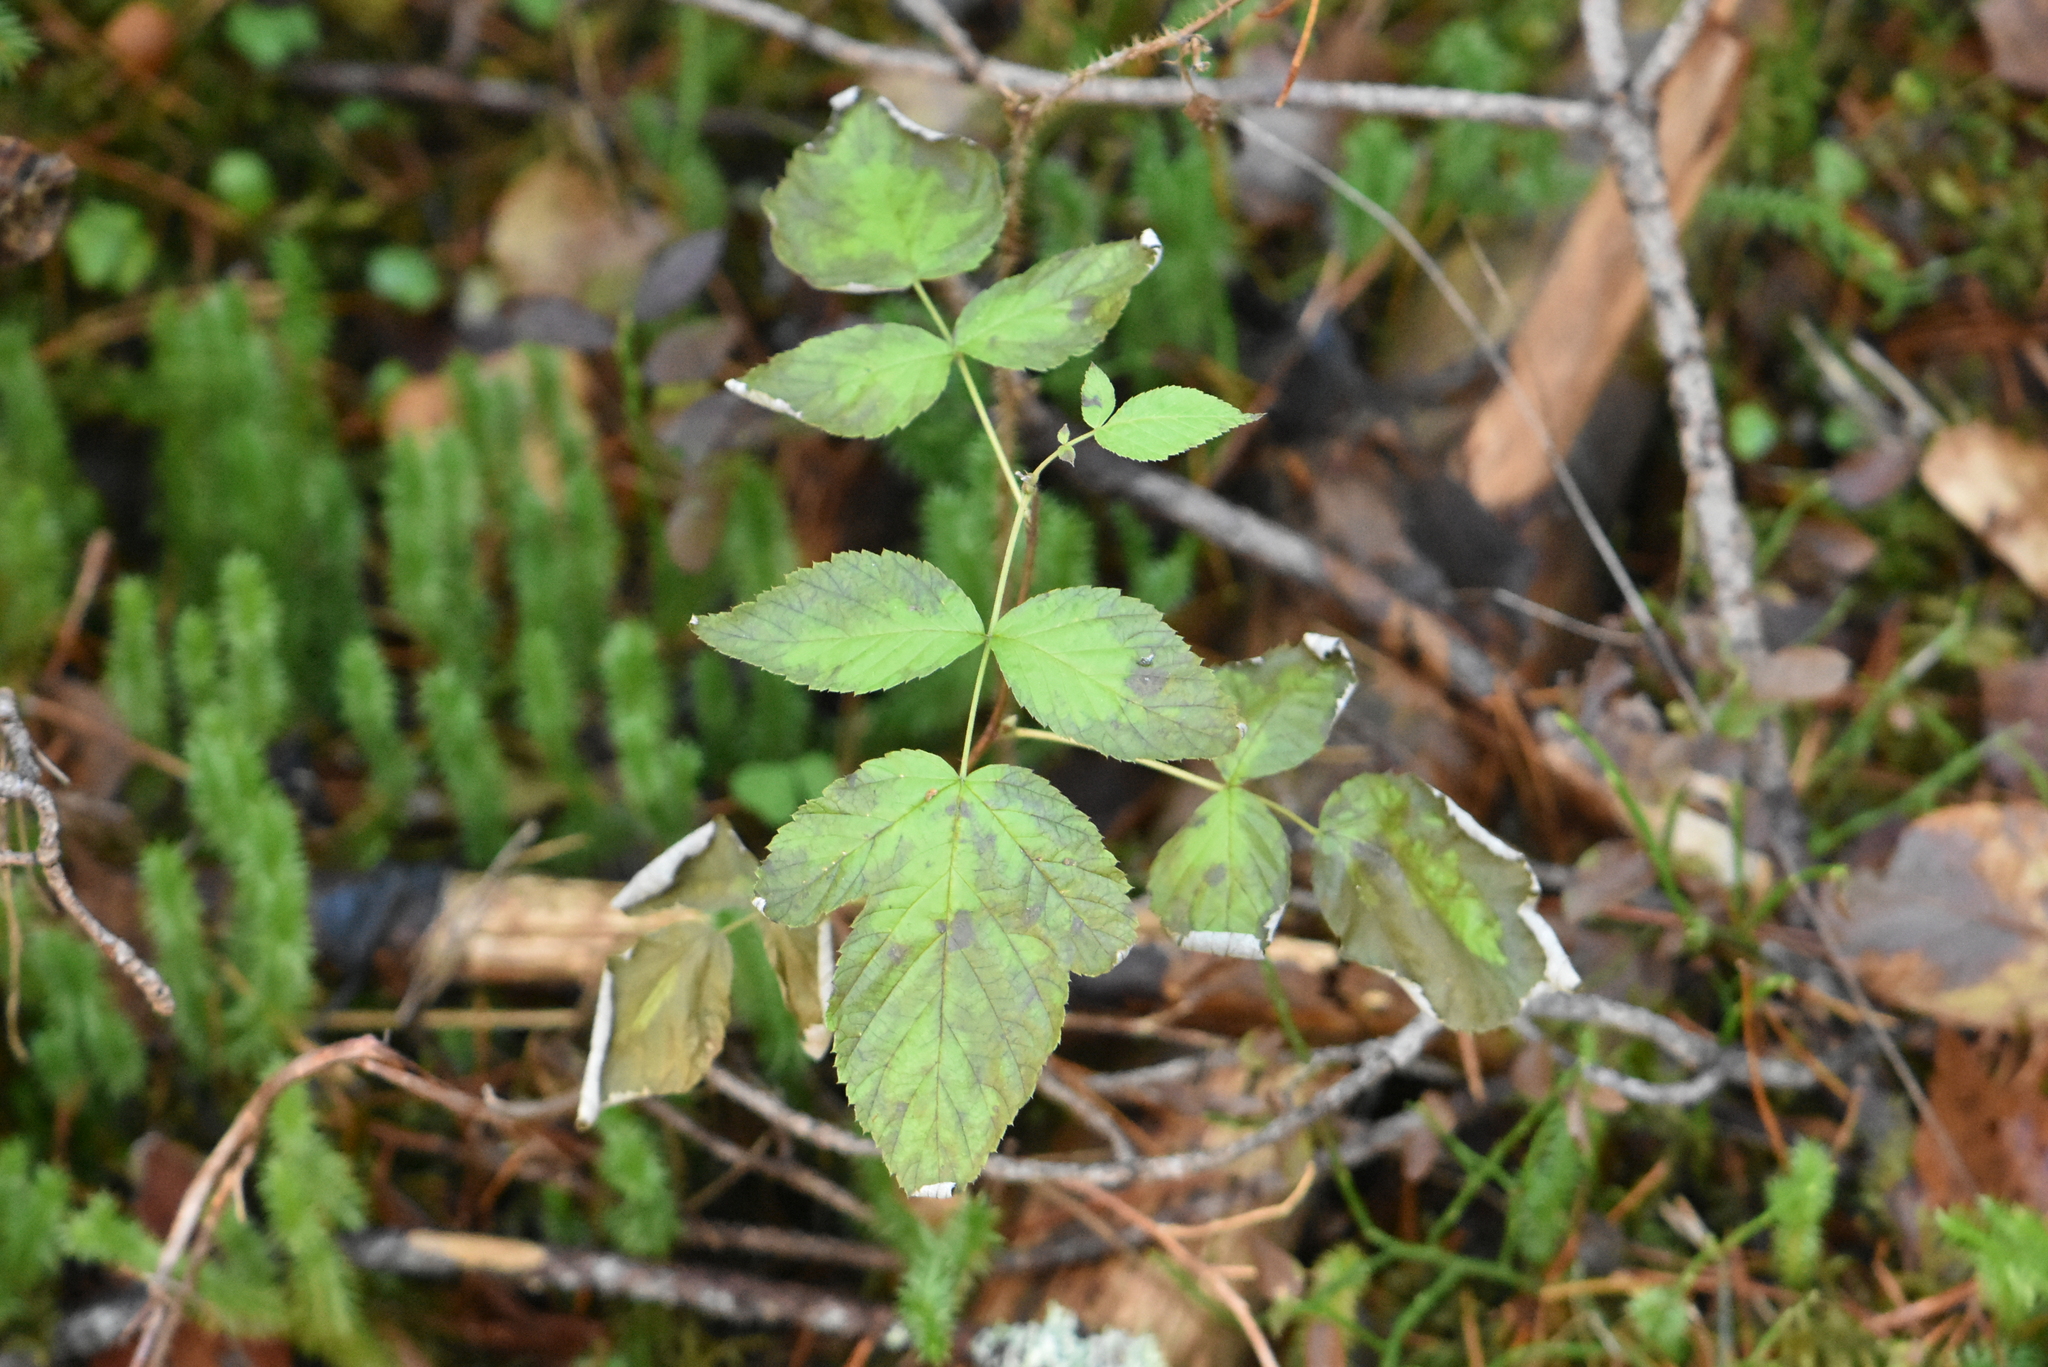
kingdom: Plantae
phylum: Tracheophyta
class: Magnoliopsida
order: Rosales
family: Rosaceae
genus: Rubus
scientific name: Rubus idaeus
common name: Raspberry
